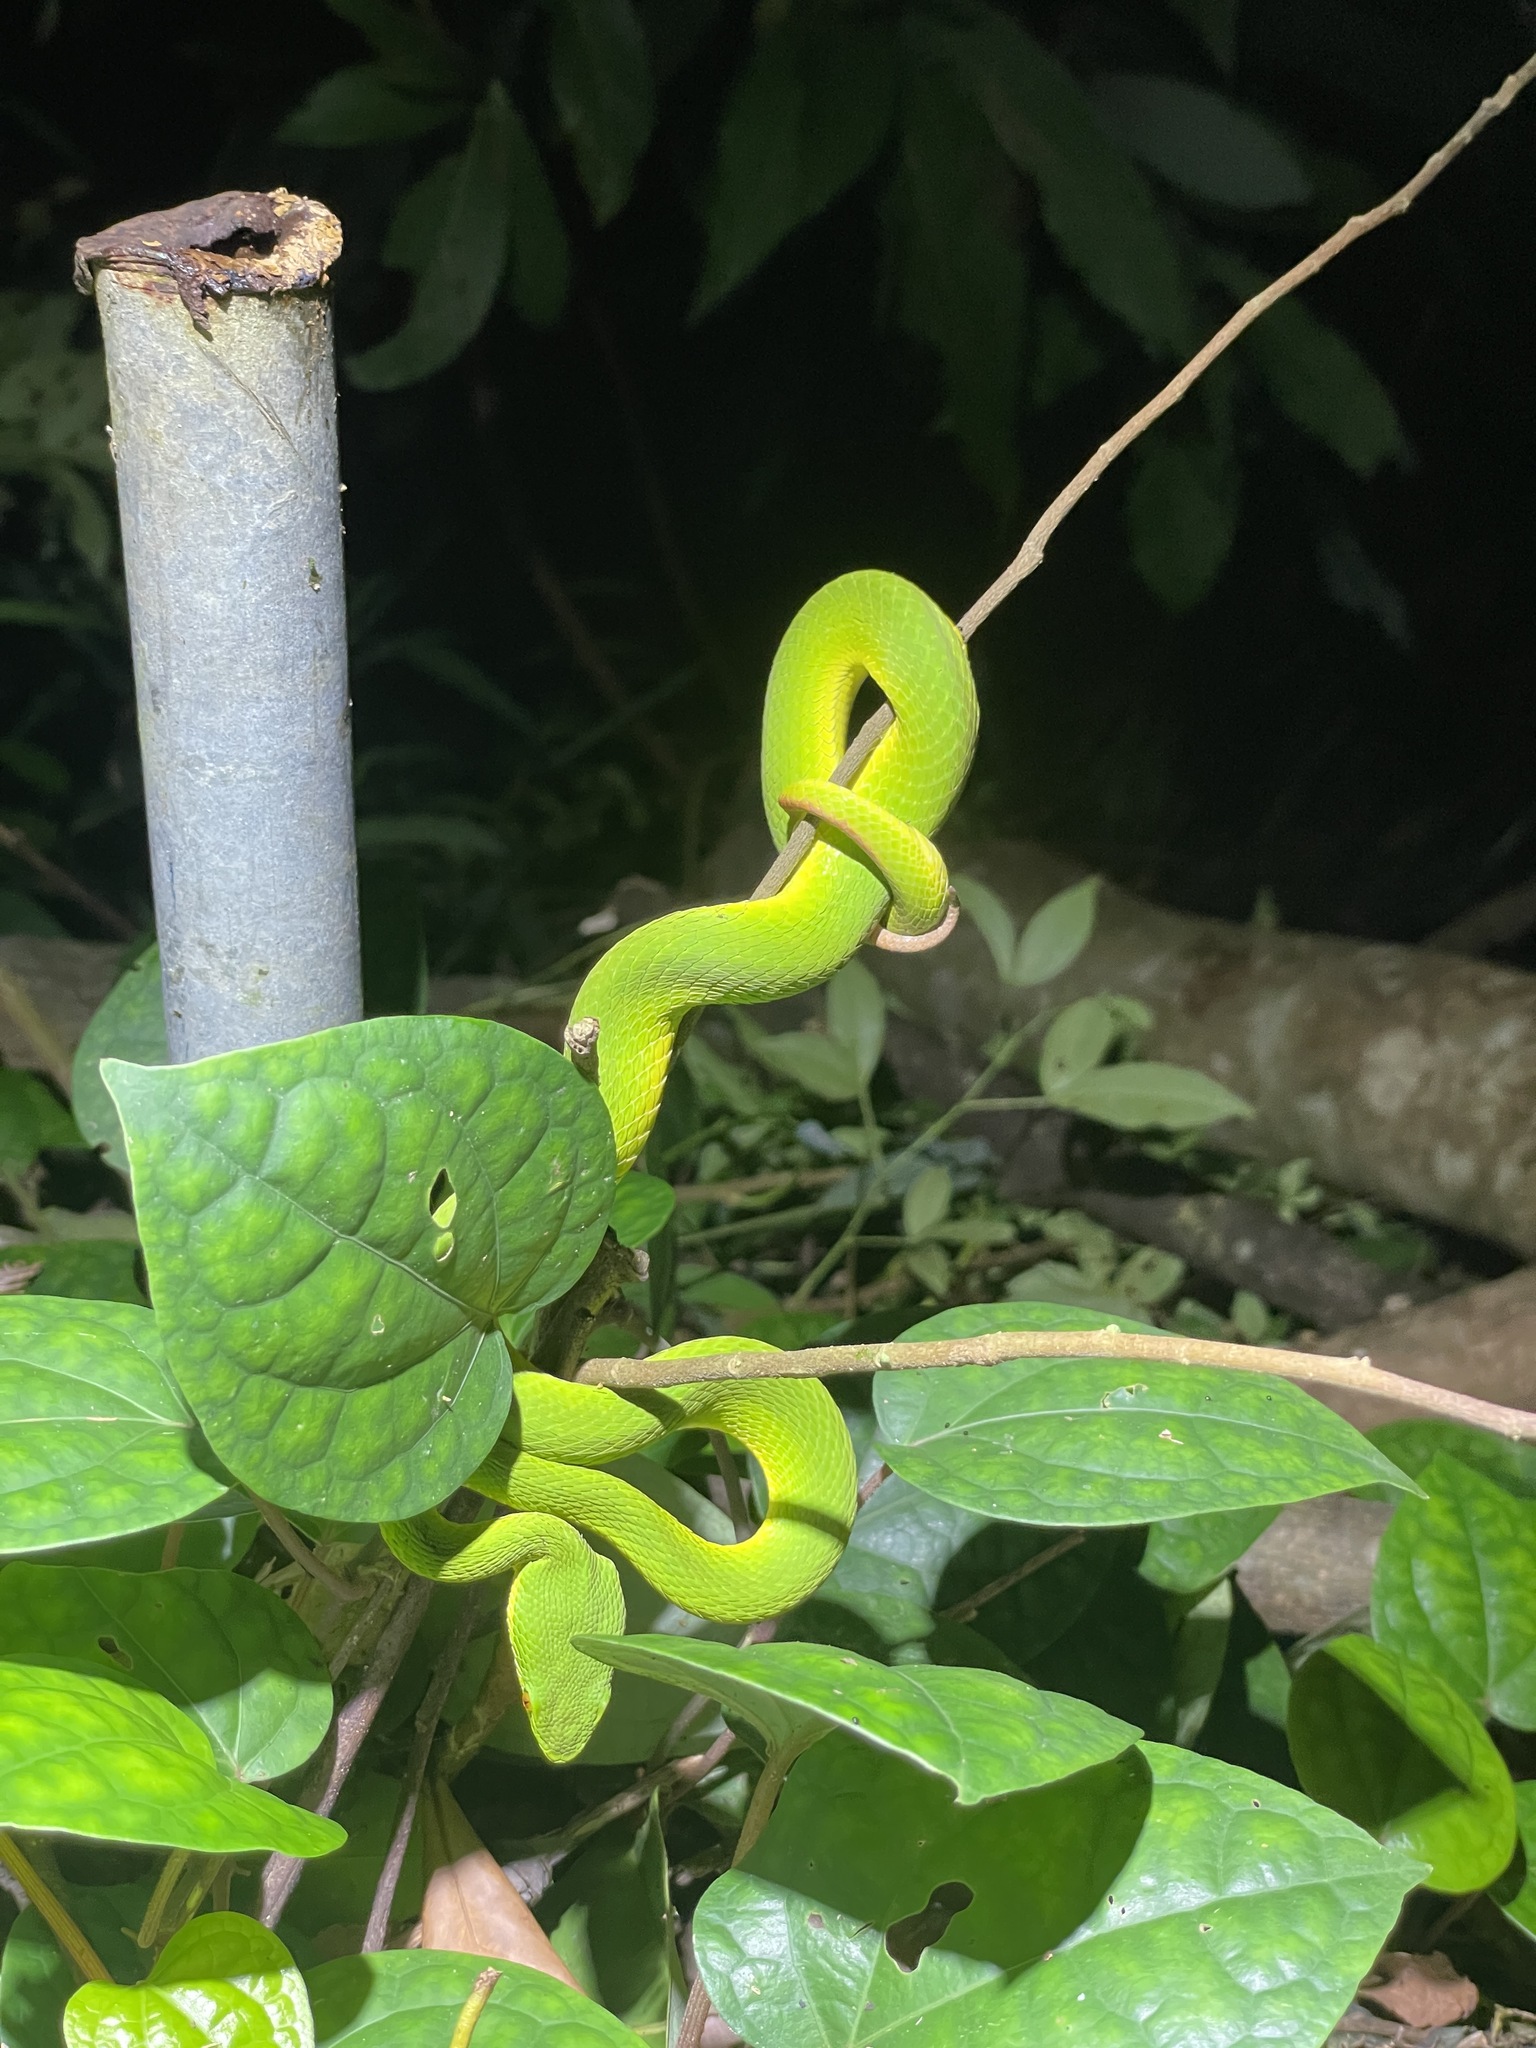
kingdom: Animalia
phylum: Chordata
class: Squamata
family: Viperidae
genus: Trimeresurus
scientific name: Trimeresurus albolabris
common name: White-lipped pitviper
